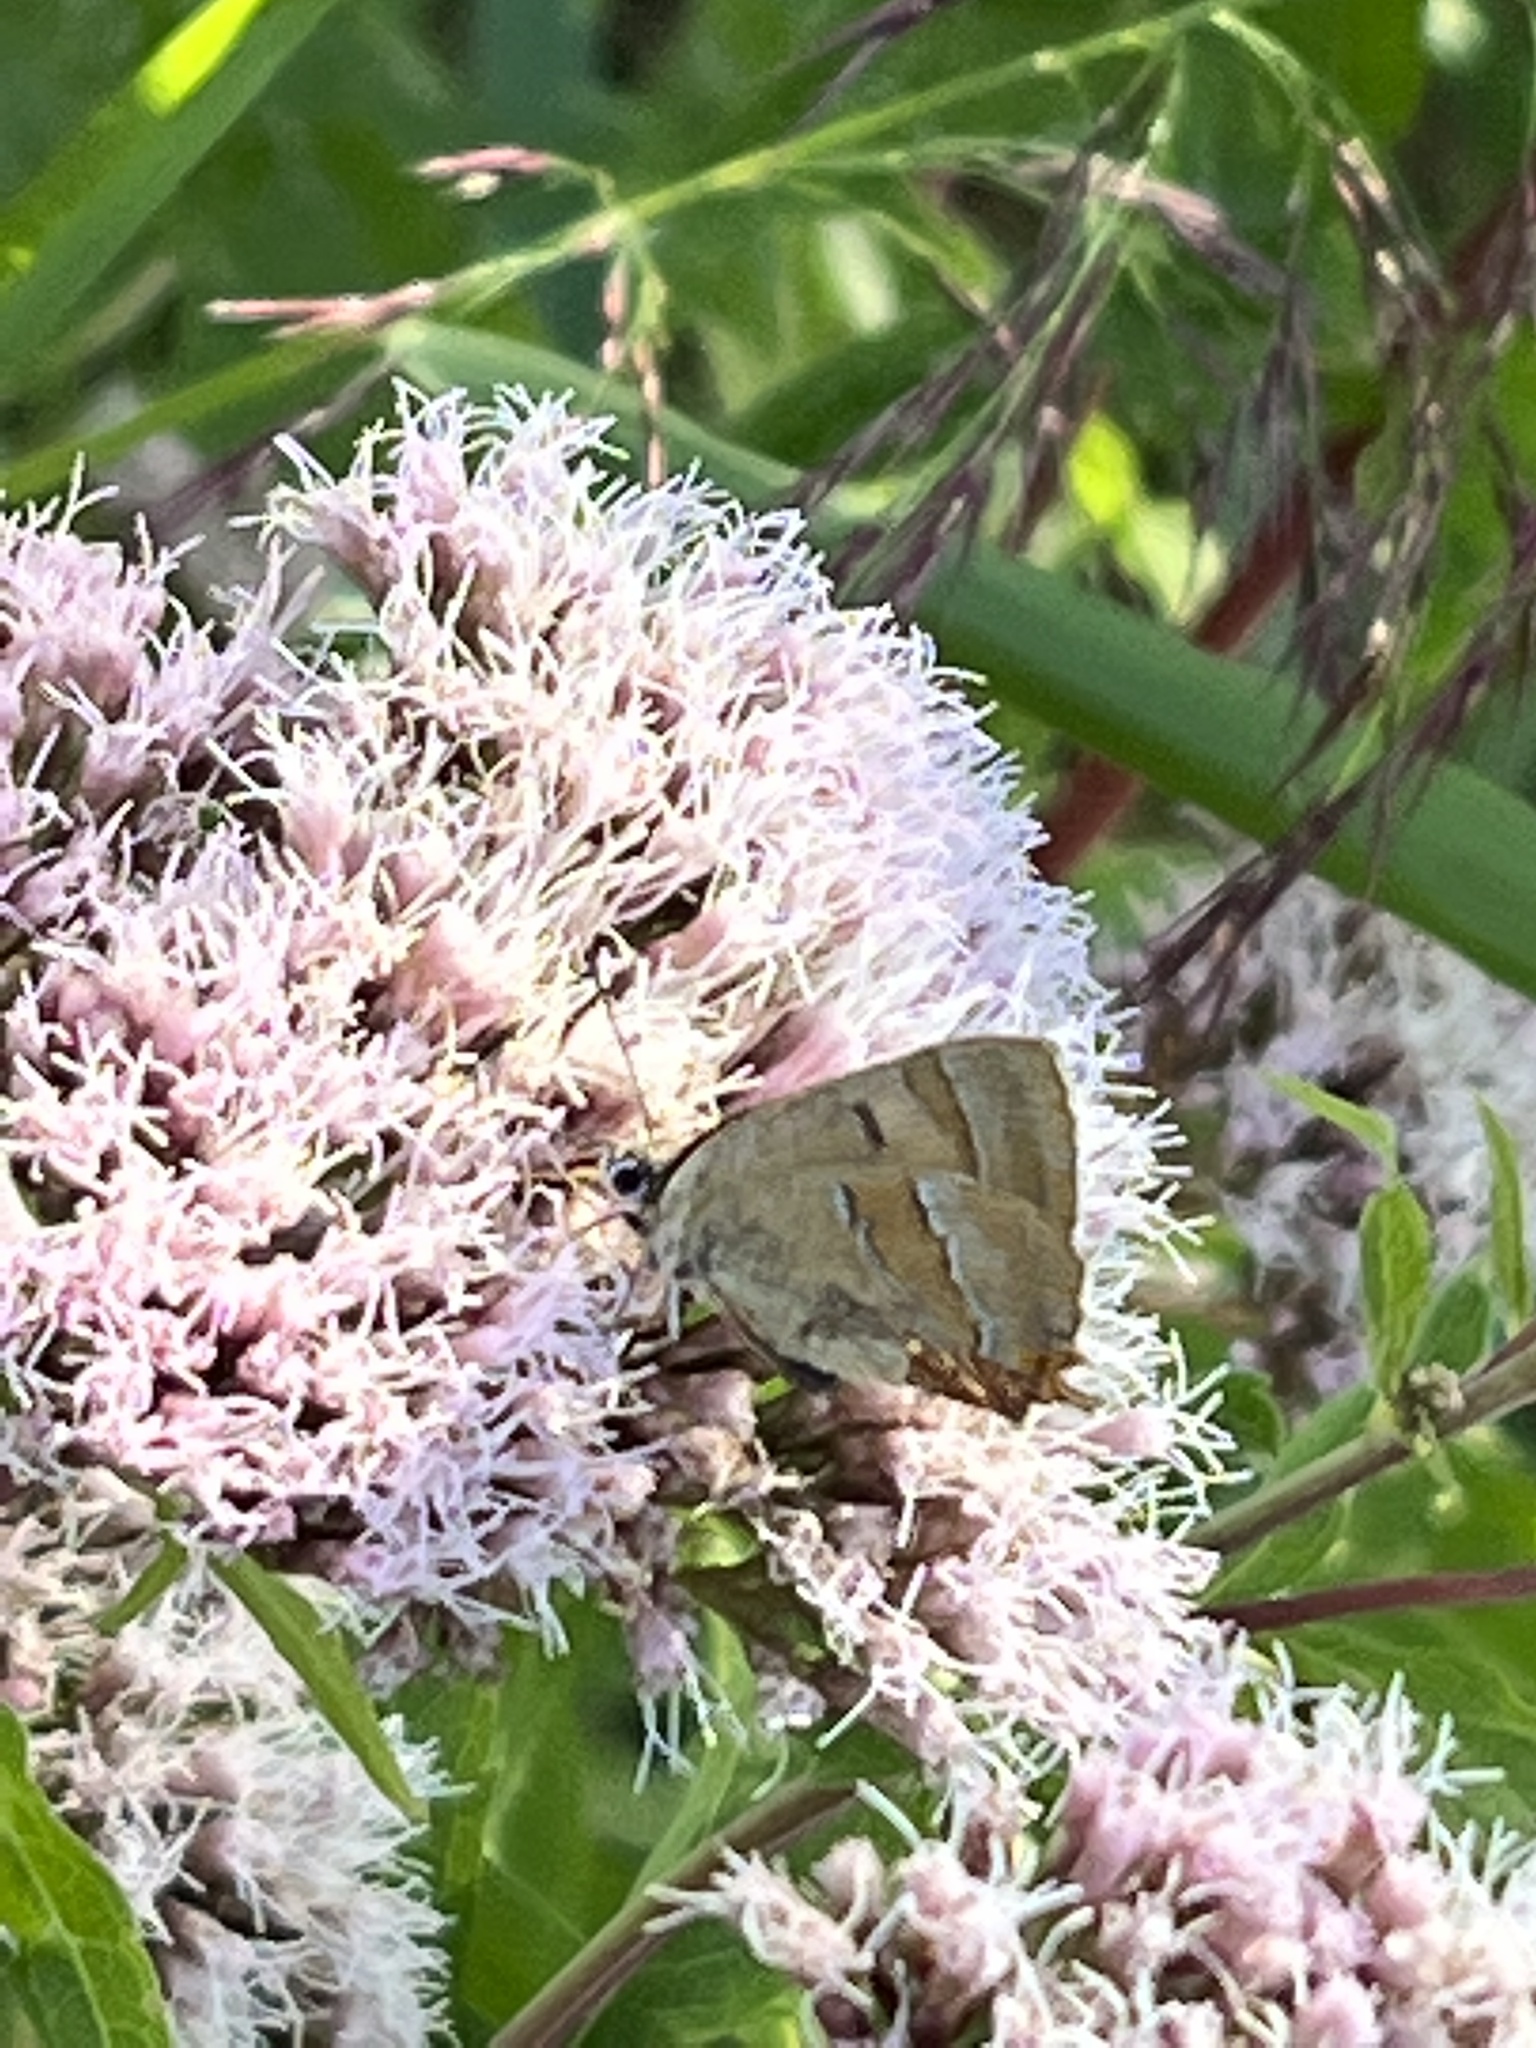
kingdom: Animalia
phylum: Arthropoda
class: Insecta
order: Lepidoptera
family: Lycaenidae
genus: Thecla
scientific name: Thecla betulae
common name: Brown hairstreak
